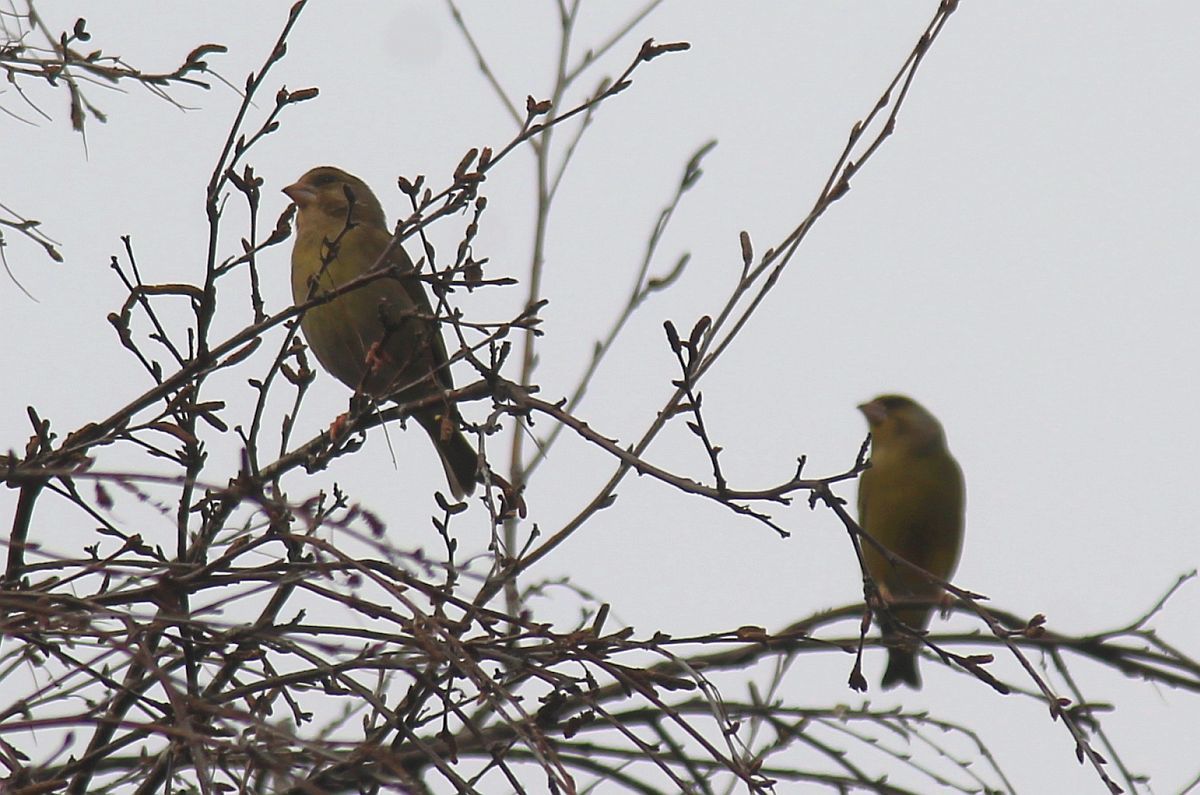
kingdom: Plantae
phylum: Tracheophyta
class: Liliopsida
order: Poales
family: Poaceae
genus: Chloris
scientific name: Chloris chloris
